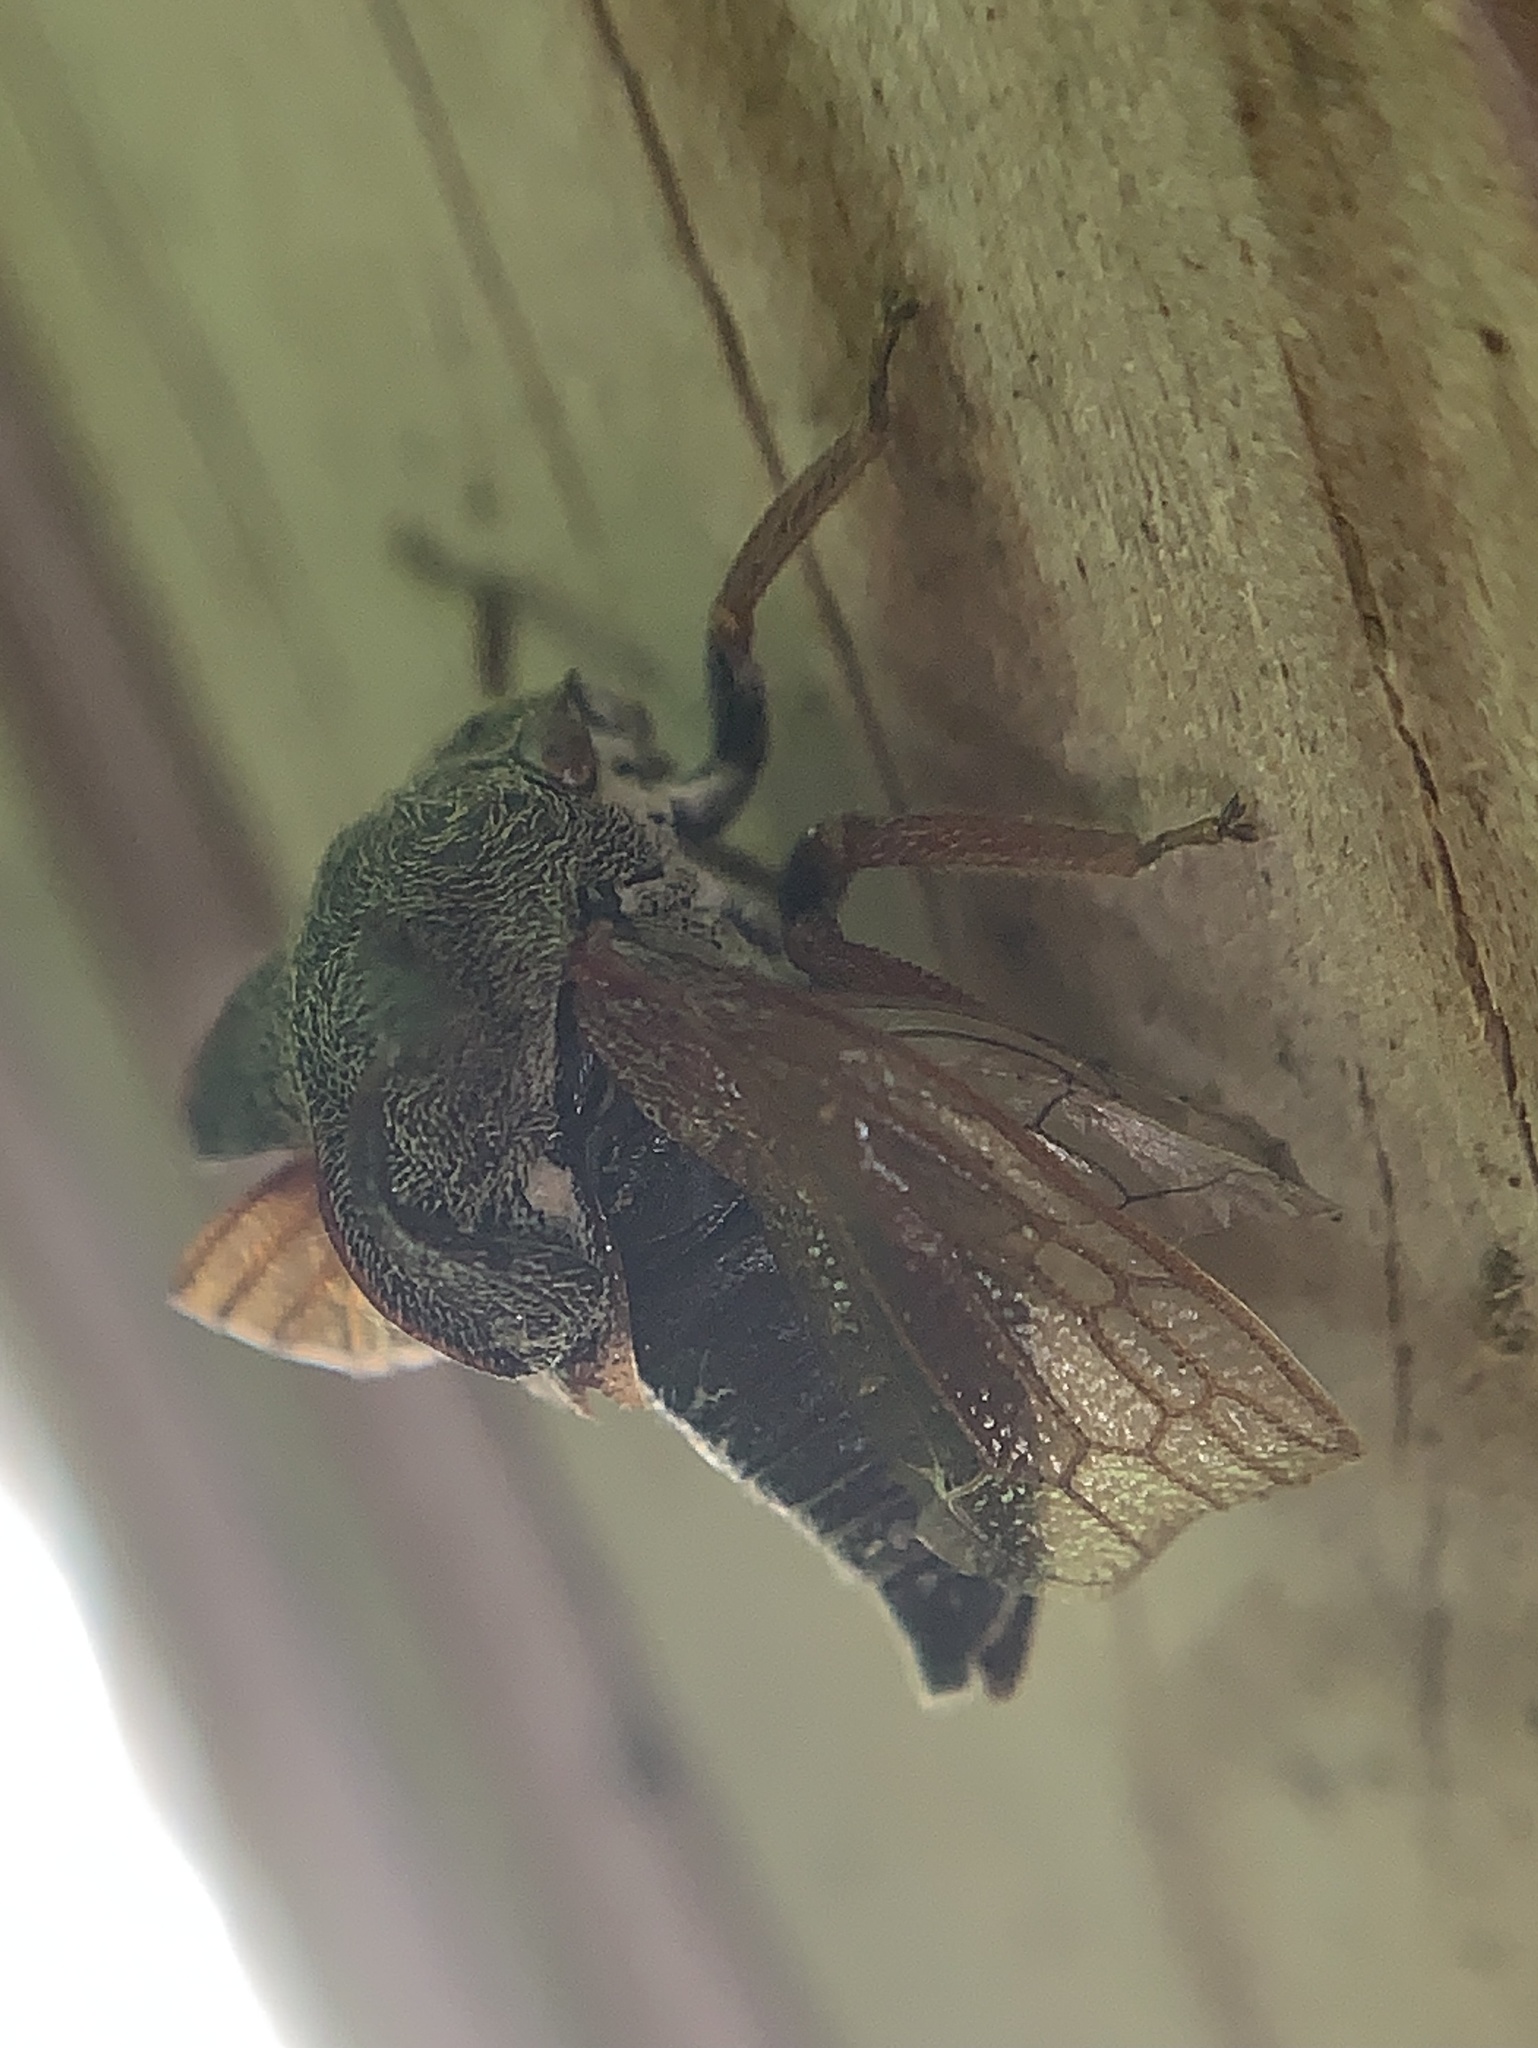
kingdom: Animalia
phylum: Arthropoda
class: Insecta
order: Hemiptera
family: Membracidae
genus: Centrotus
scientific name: Centrotus cornuta
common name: Treehopper
